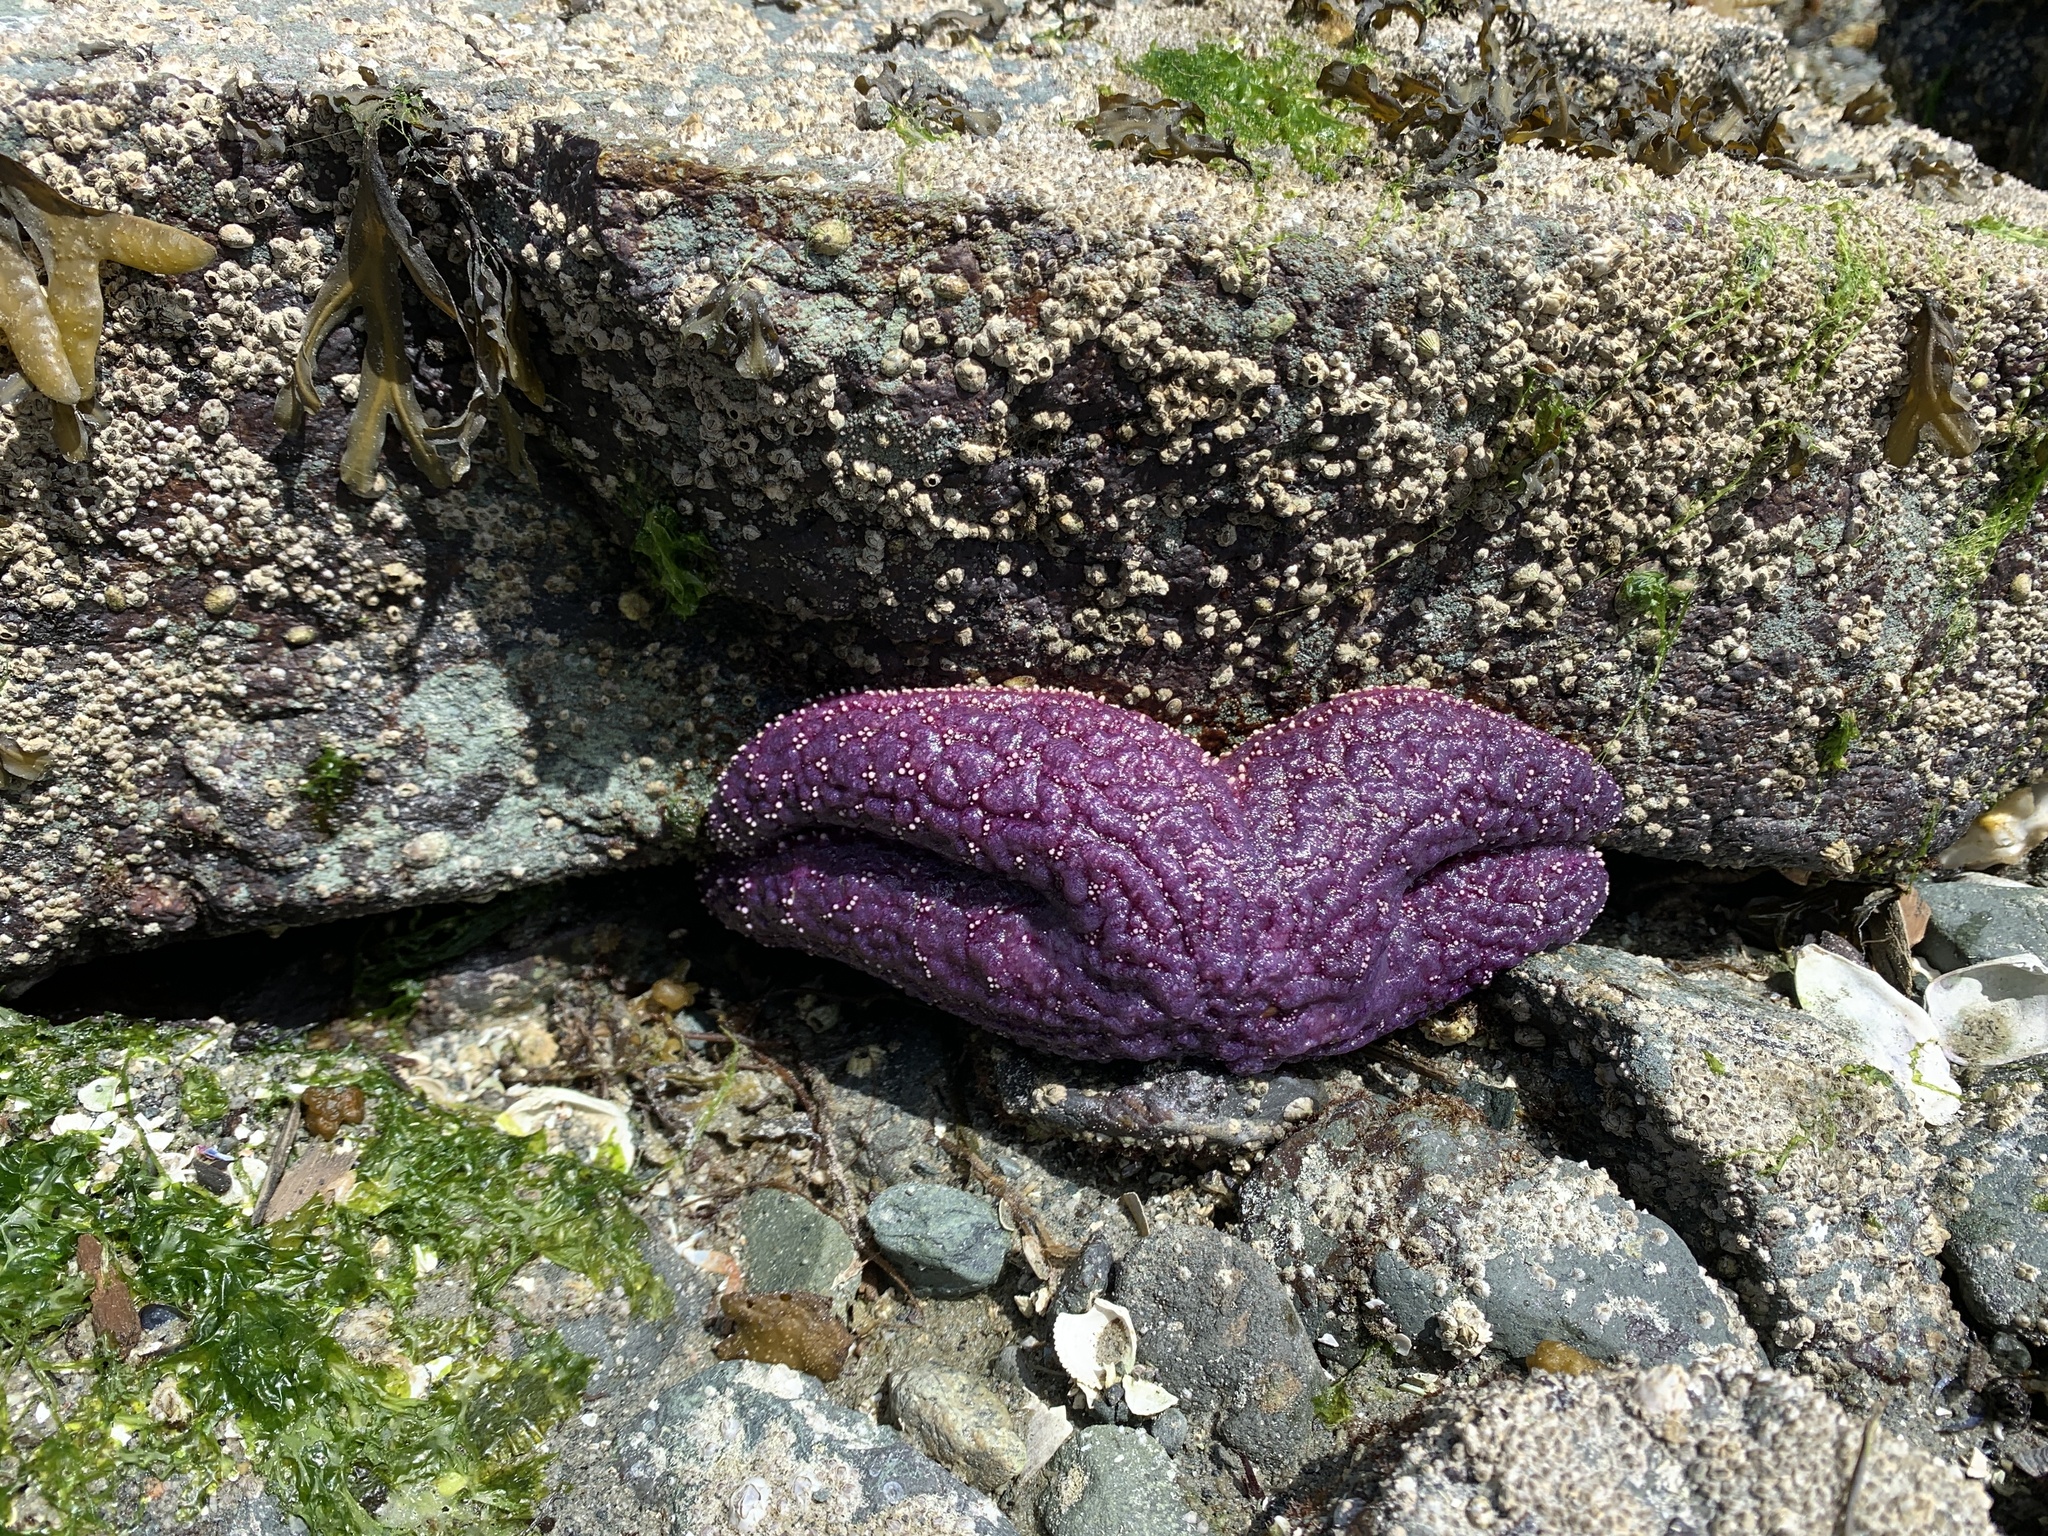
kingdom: Animalia
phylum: Echinodermata
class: Asteroidea
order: Forcipulatida
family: Asteriidae
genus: Pisaster
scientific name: Pisaster ochraceus
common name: Ochre stars
